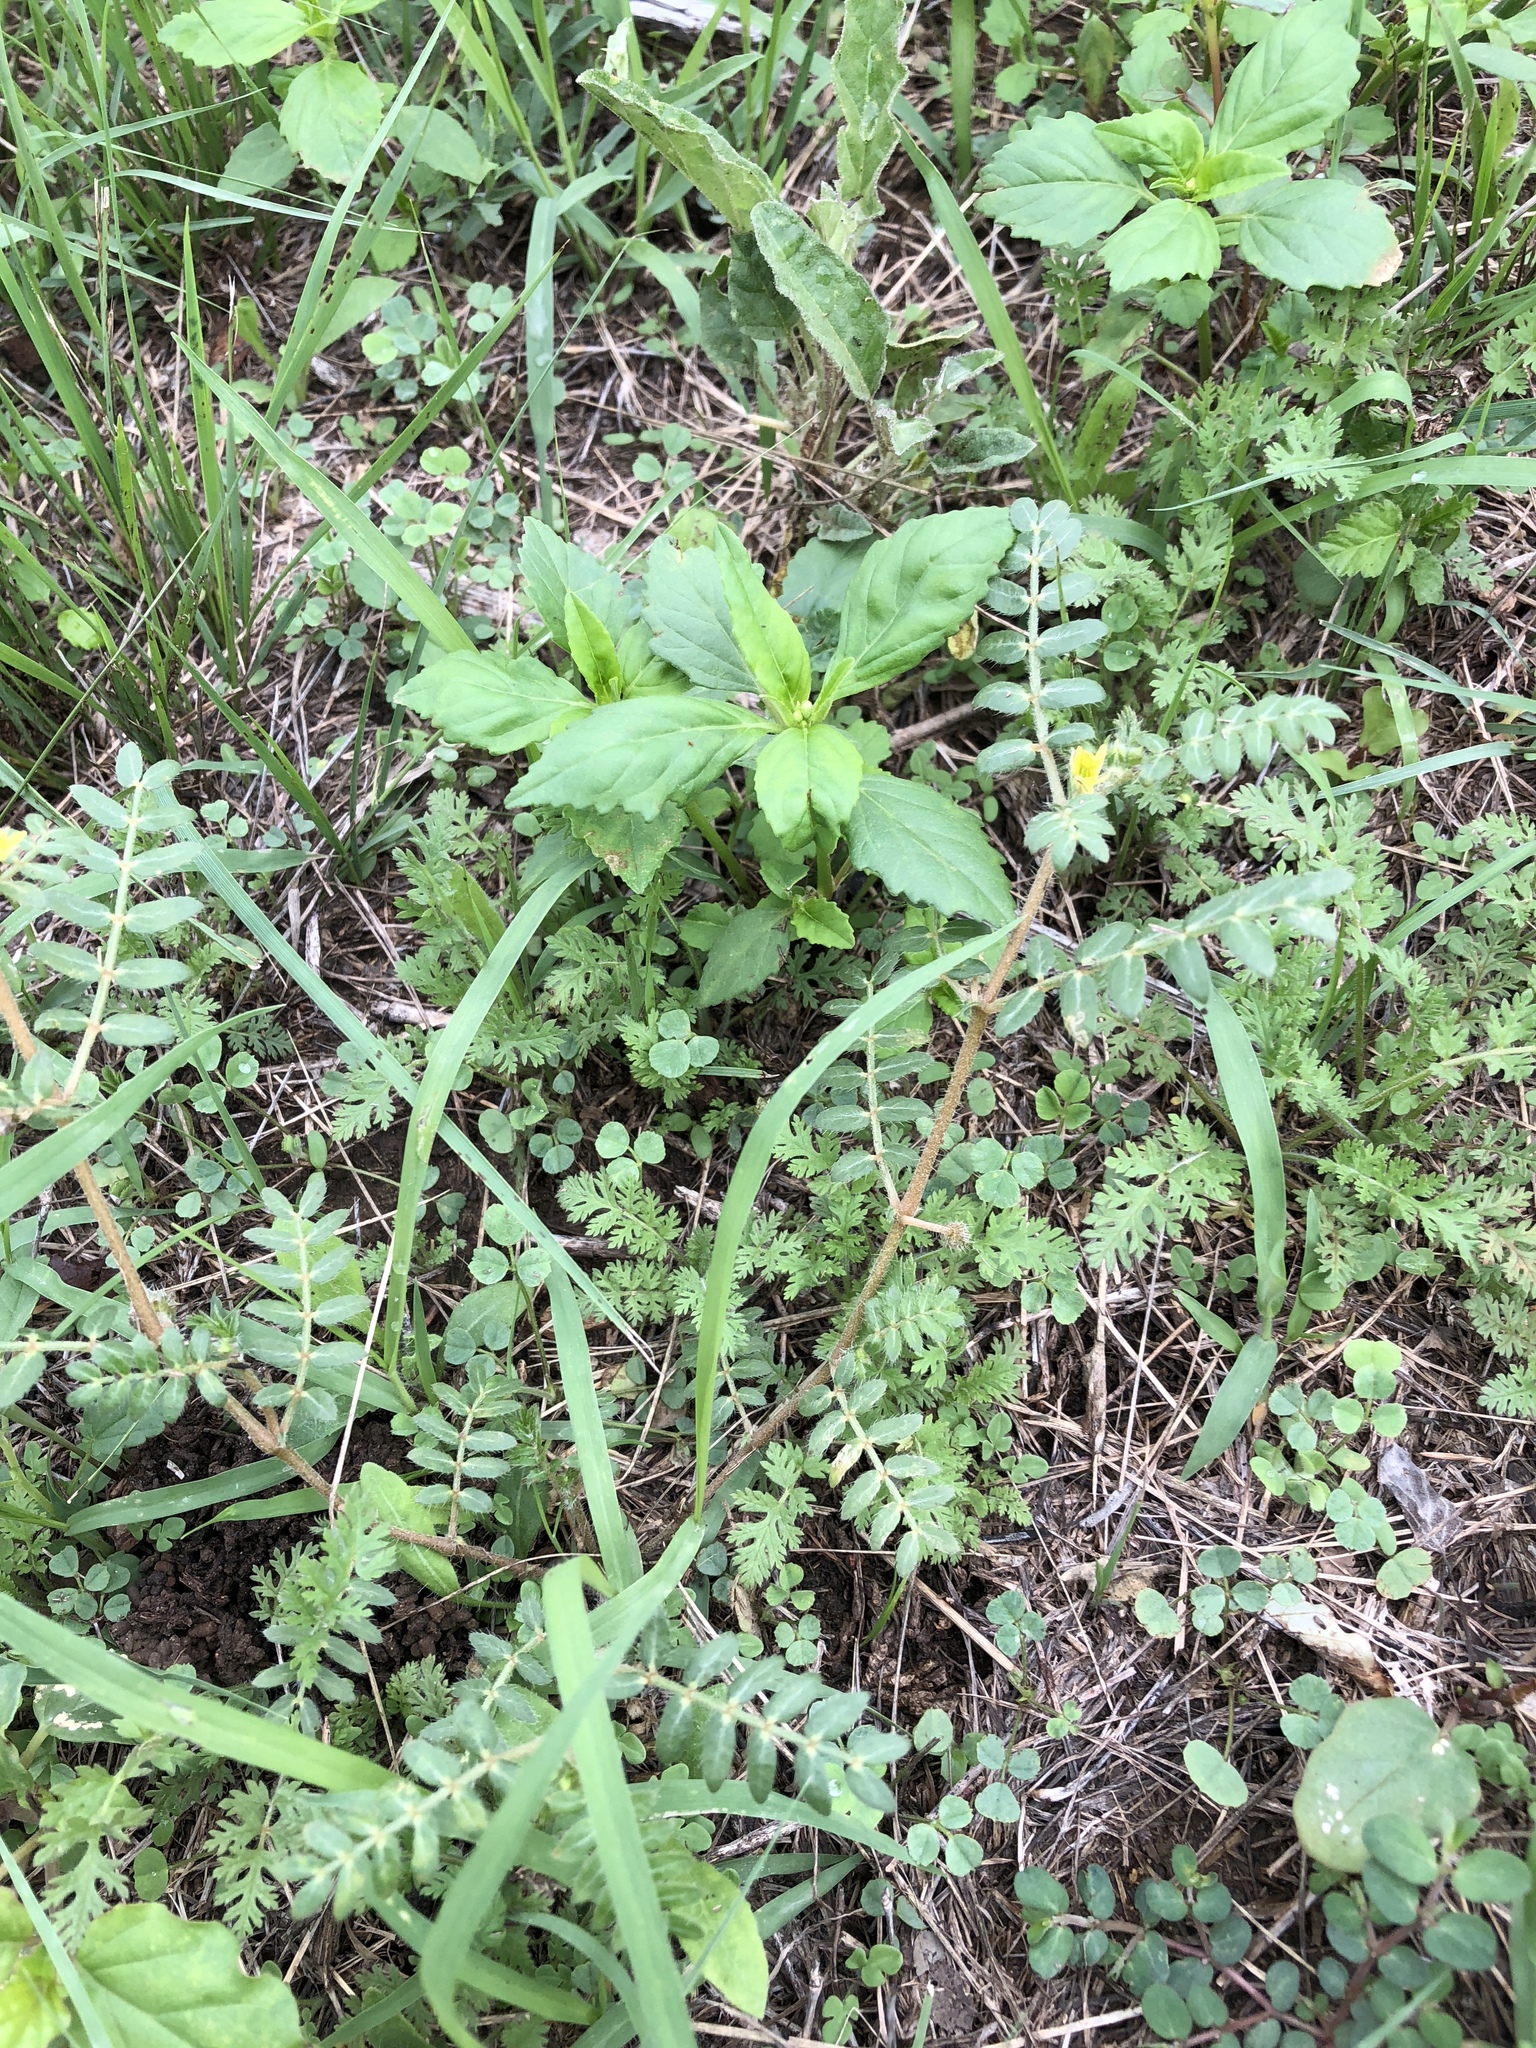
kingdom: Plantae
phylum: Tracheophyta
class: Magnoliopsida
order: Zygophyllales
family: Zygophyllaceae
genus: Tribulus
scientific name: Tribulus terrestris
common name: Puncturevine
